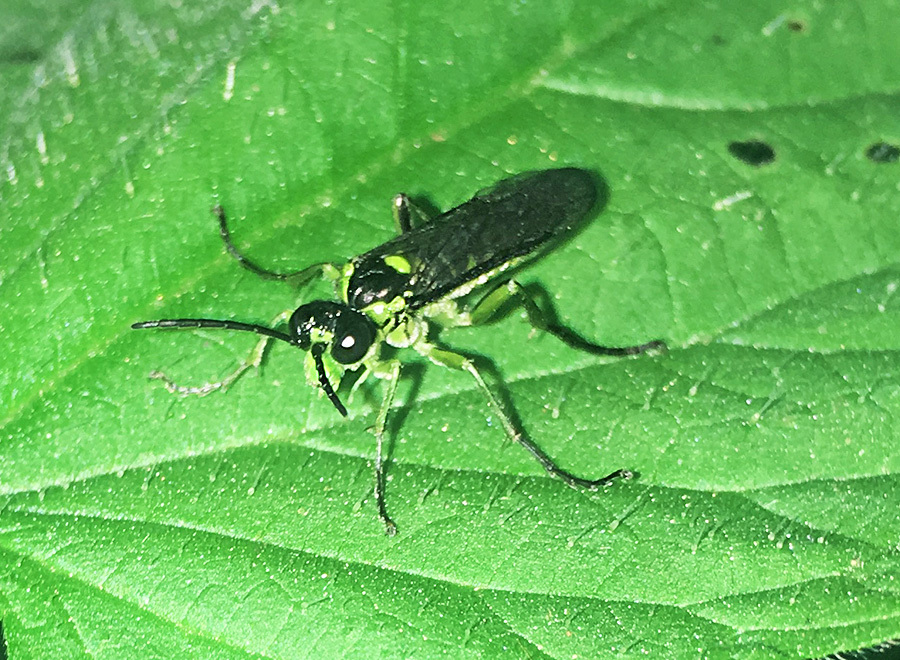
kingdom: Animalia
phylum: Arthropoda
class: Insecta
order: Hymenoptera
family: Tenthredinidae
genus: Tenthredo
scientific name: Tenthredo mesomela
